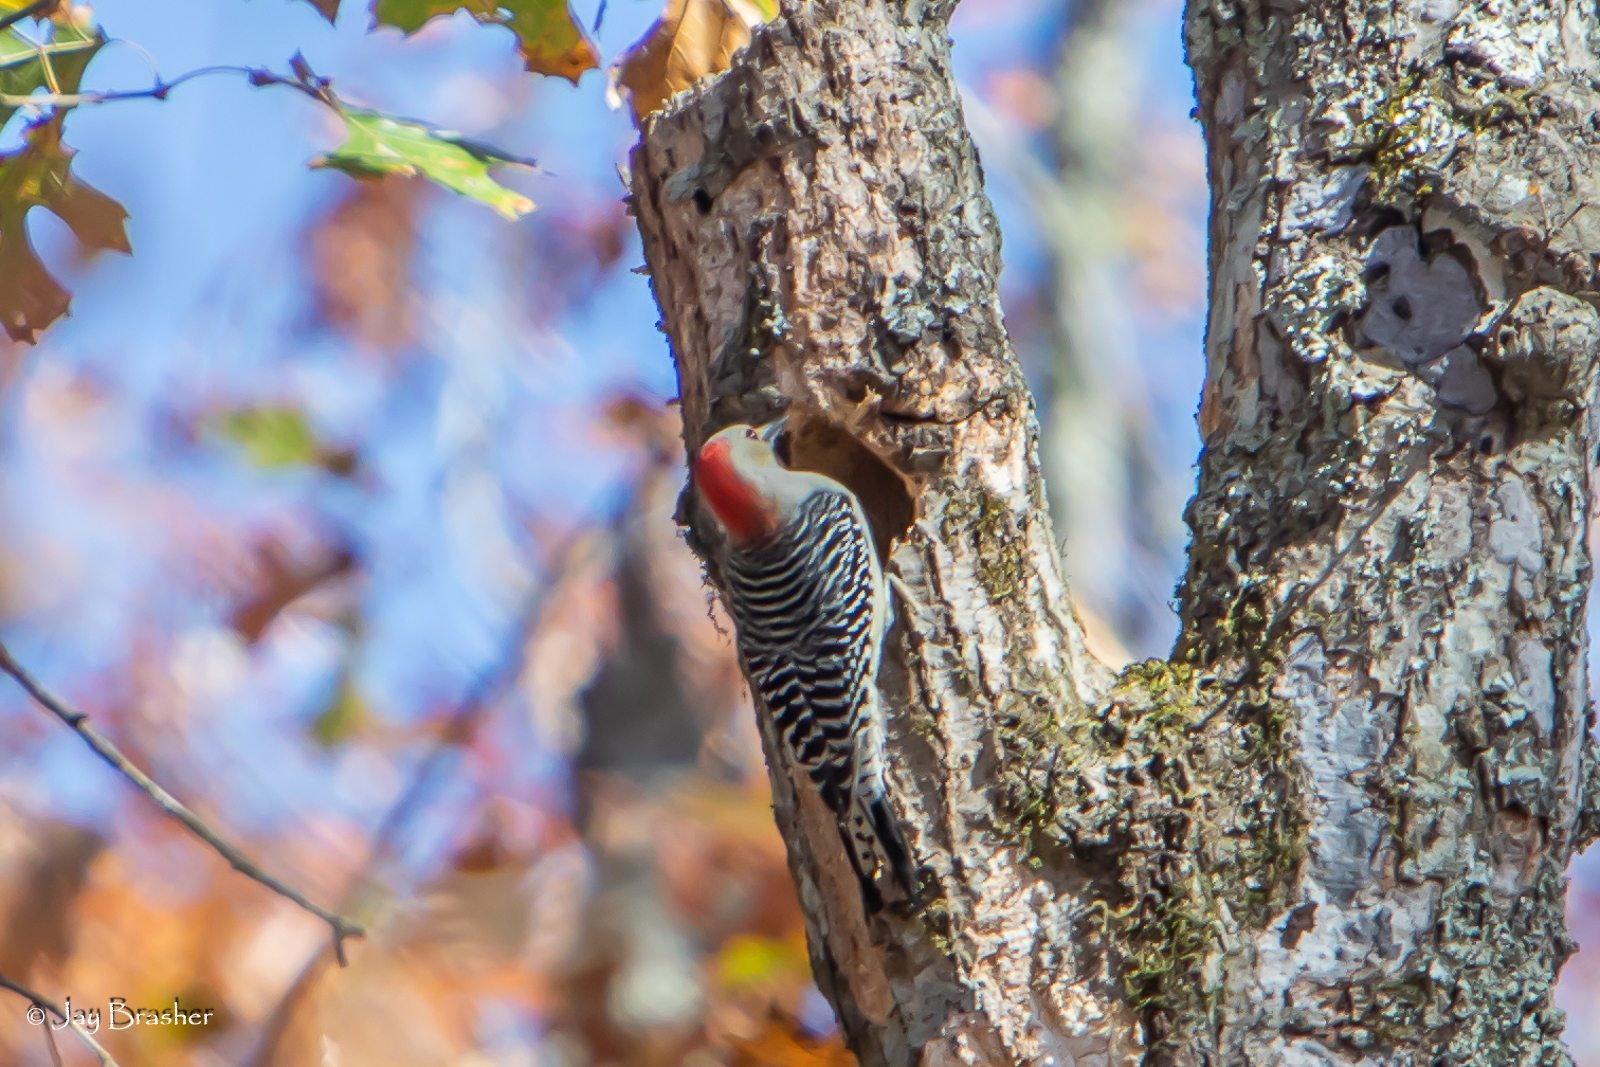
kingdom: Animalia
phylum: Chordata
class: Aves
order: Piciformes
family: Picidae
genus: Melanerpes
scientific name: Melanerpes carolinus
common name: Red-bellied woodpecker
